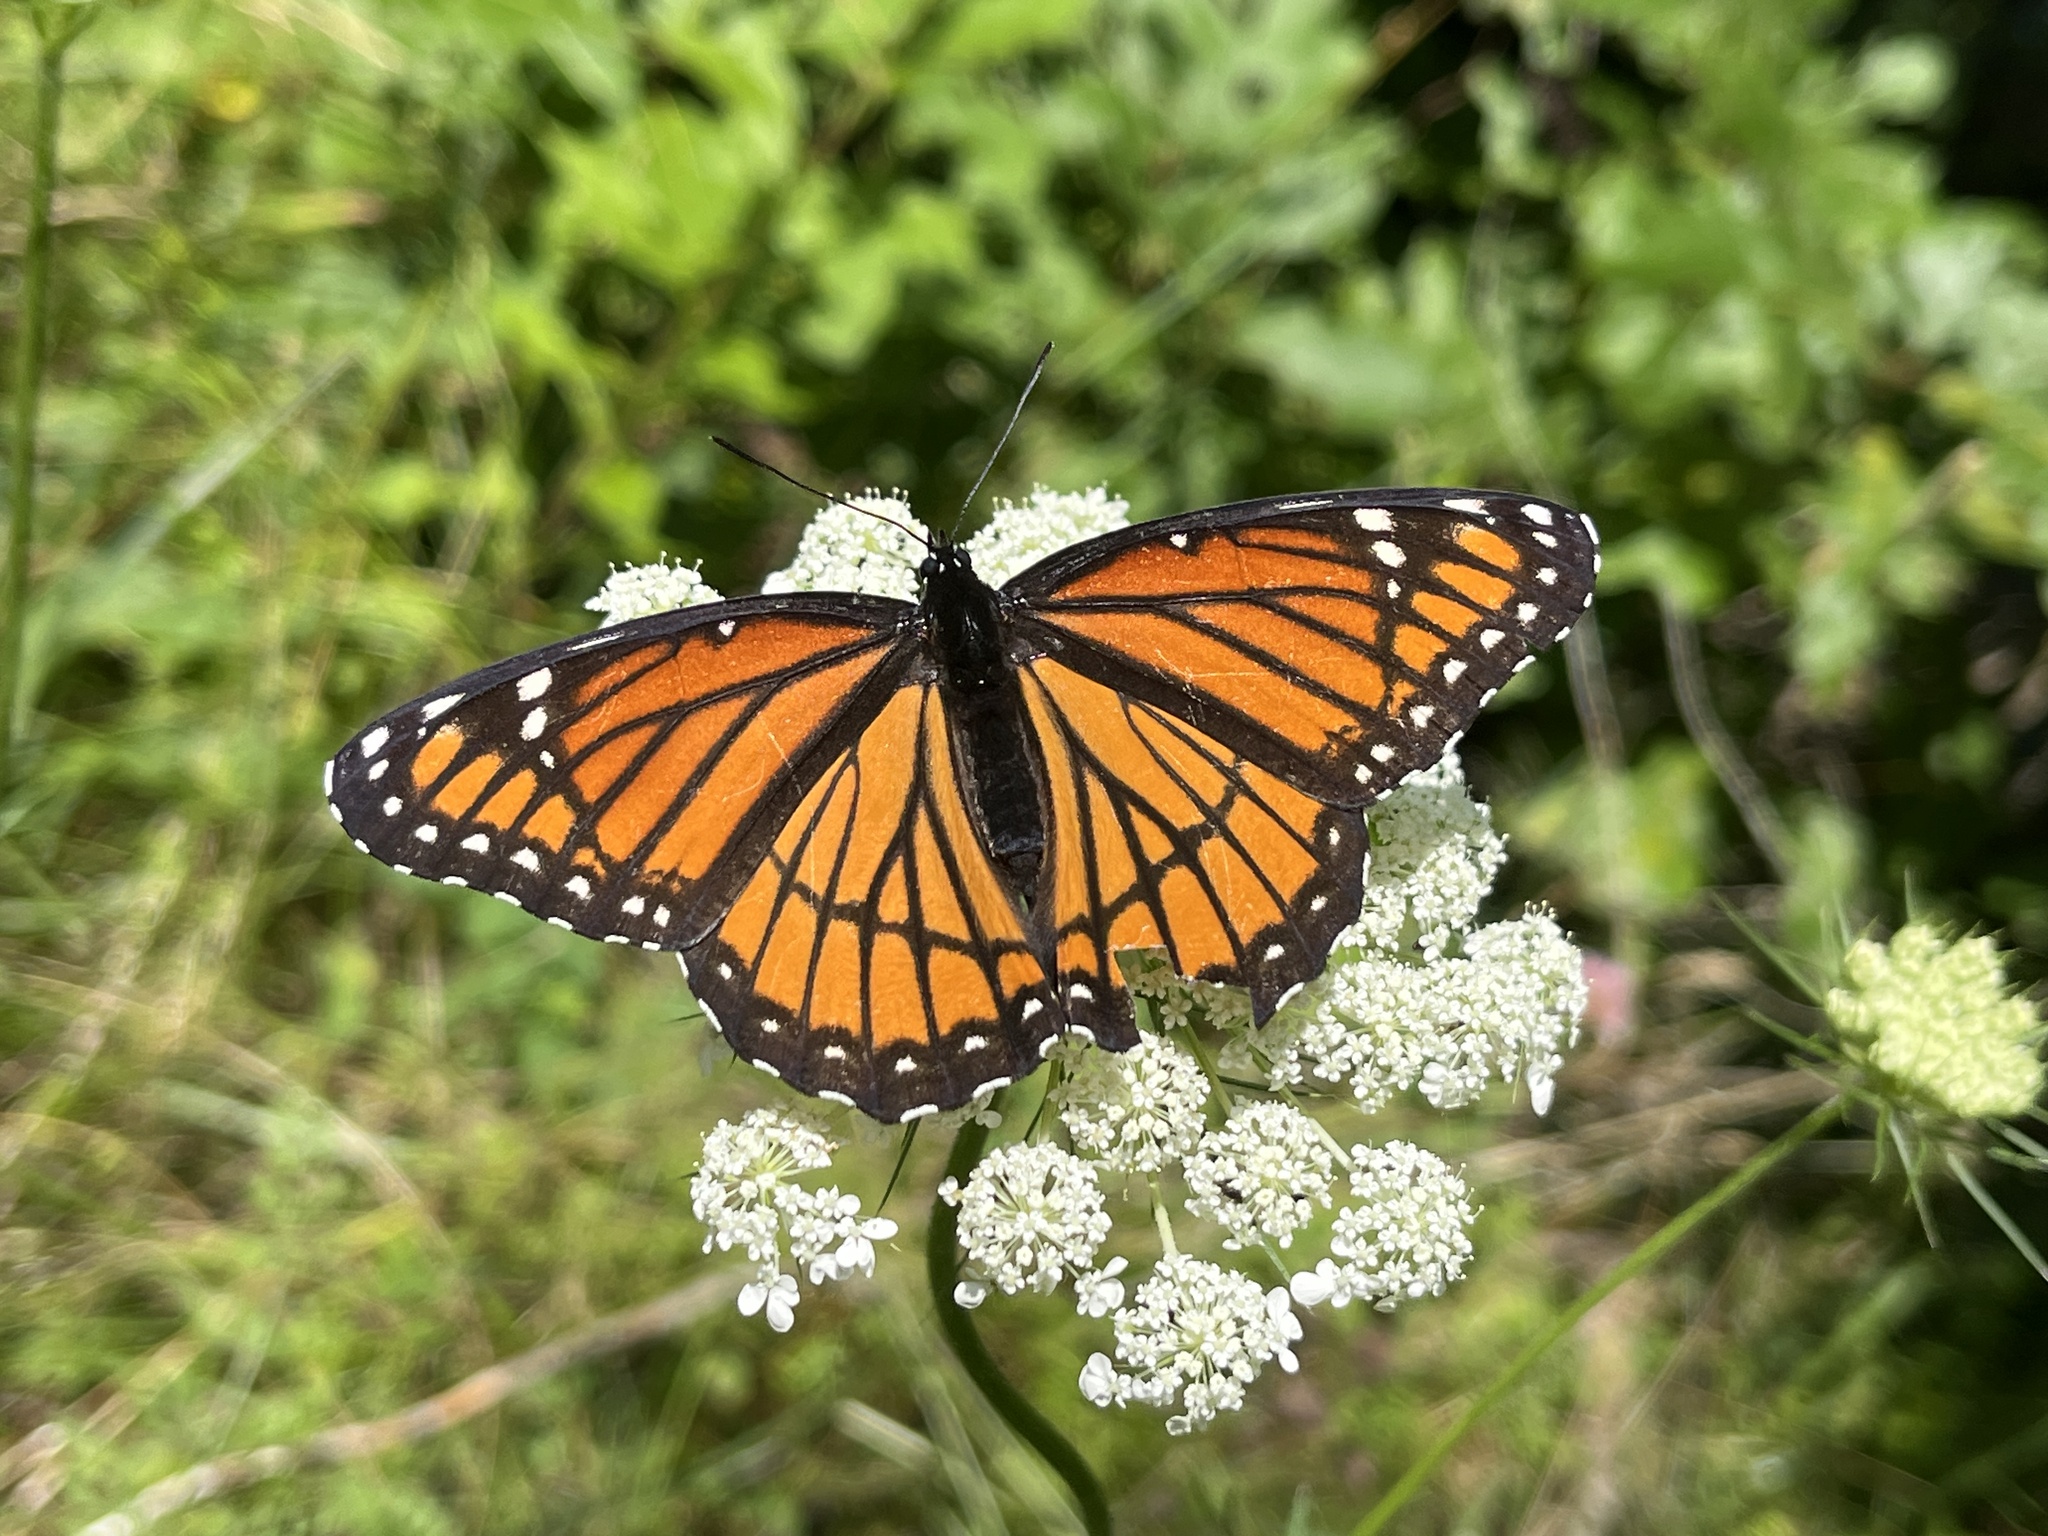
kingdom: Animalia
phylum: Arthropoda
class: Insecta
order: Lepidoptera
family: Nymphalidae
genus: Limenitis
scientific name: Limenitis archippus
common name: Viceroy
